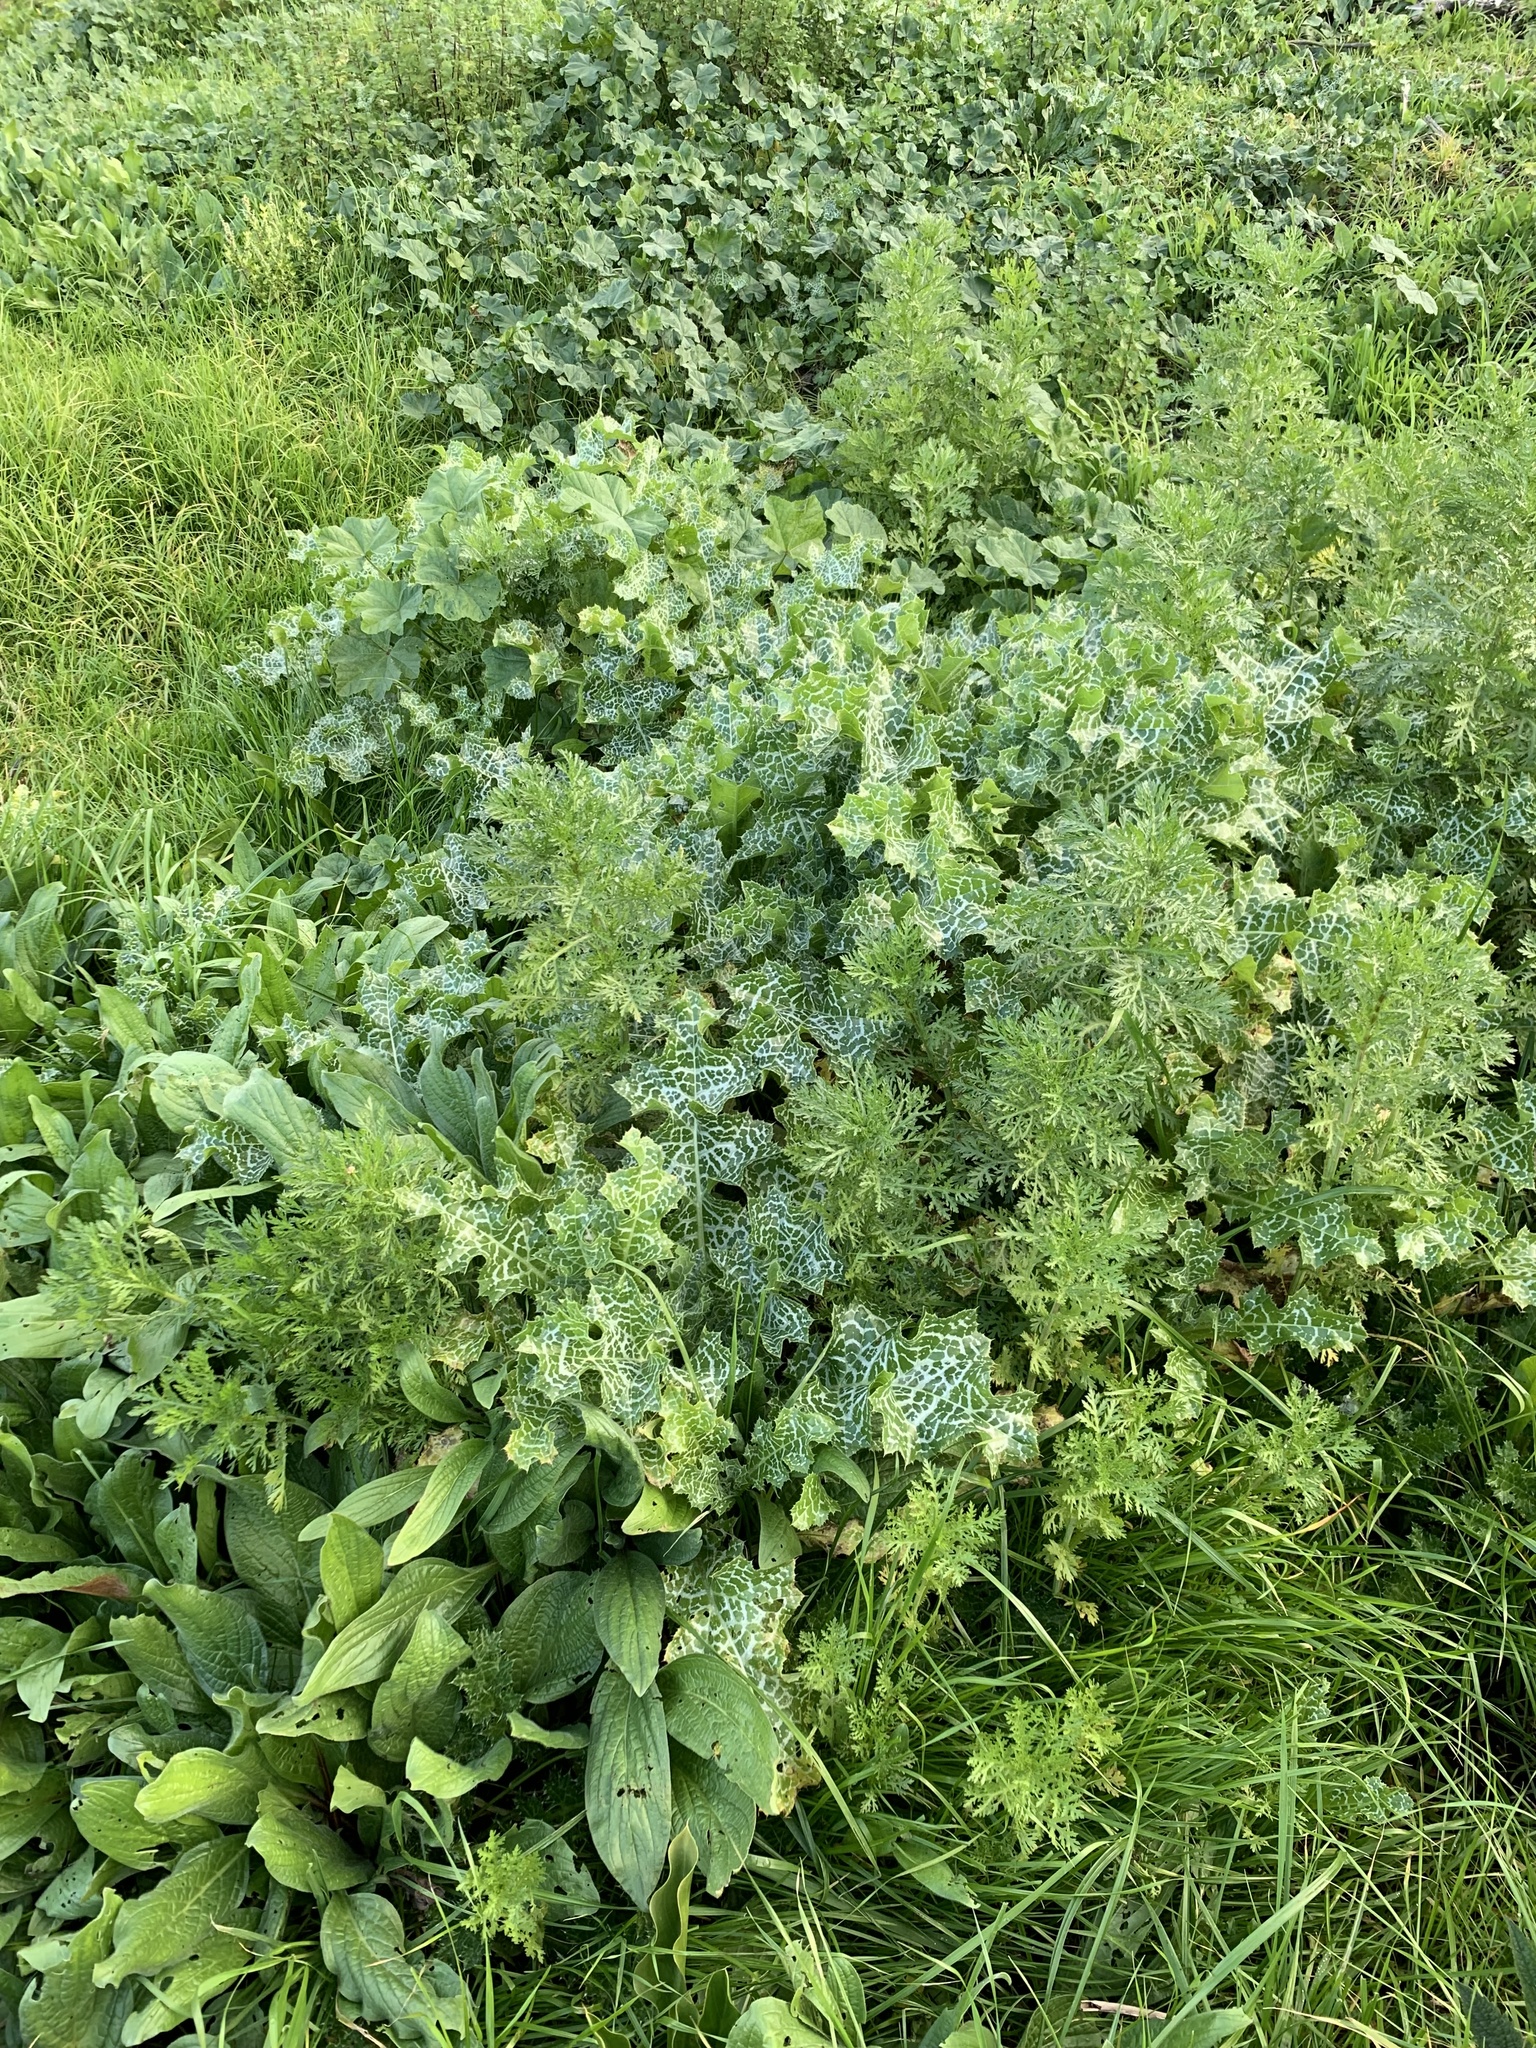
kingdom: Plantae
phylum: Tracheophyta
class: Magnoliopsida
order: Asterales
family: Asteraceae
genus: Silybum
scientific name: Silybum marianum
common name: Milk thistle
